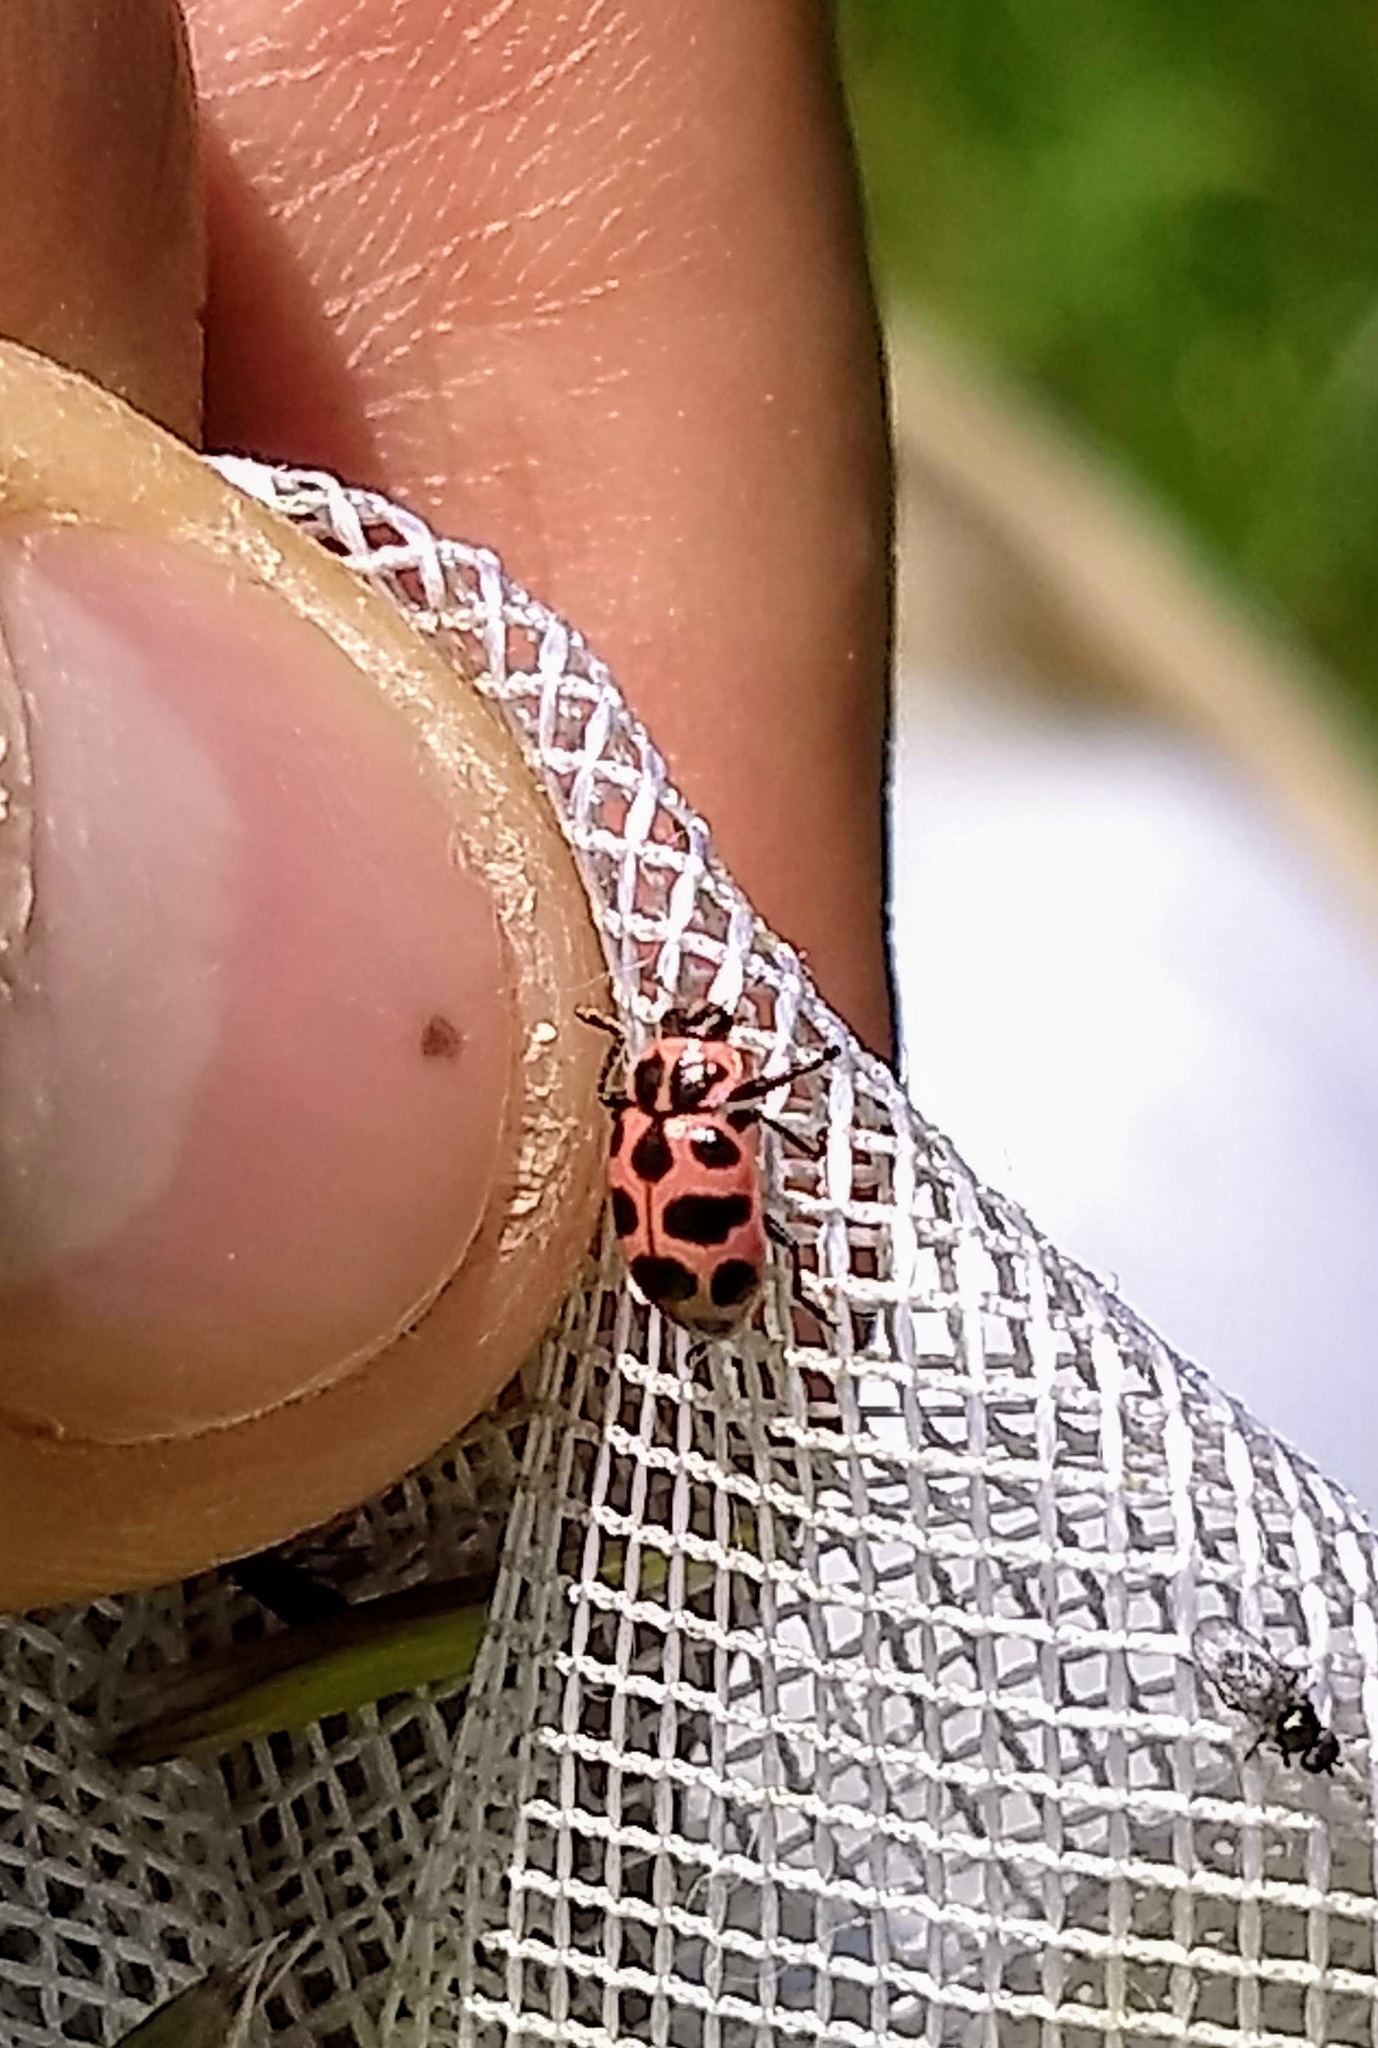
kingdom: Animalia
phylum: Arthropoda
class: Insecta
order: Coleoptera
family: Coccinellidae
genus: Coleomegilla
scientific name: Coleomegilla maculata
